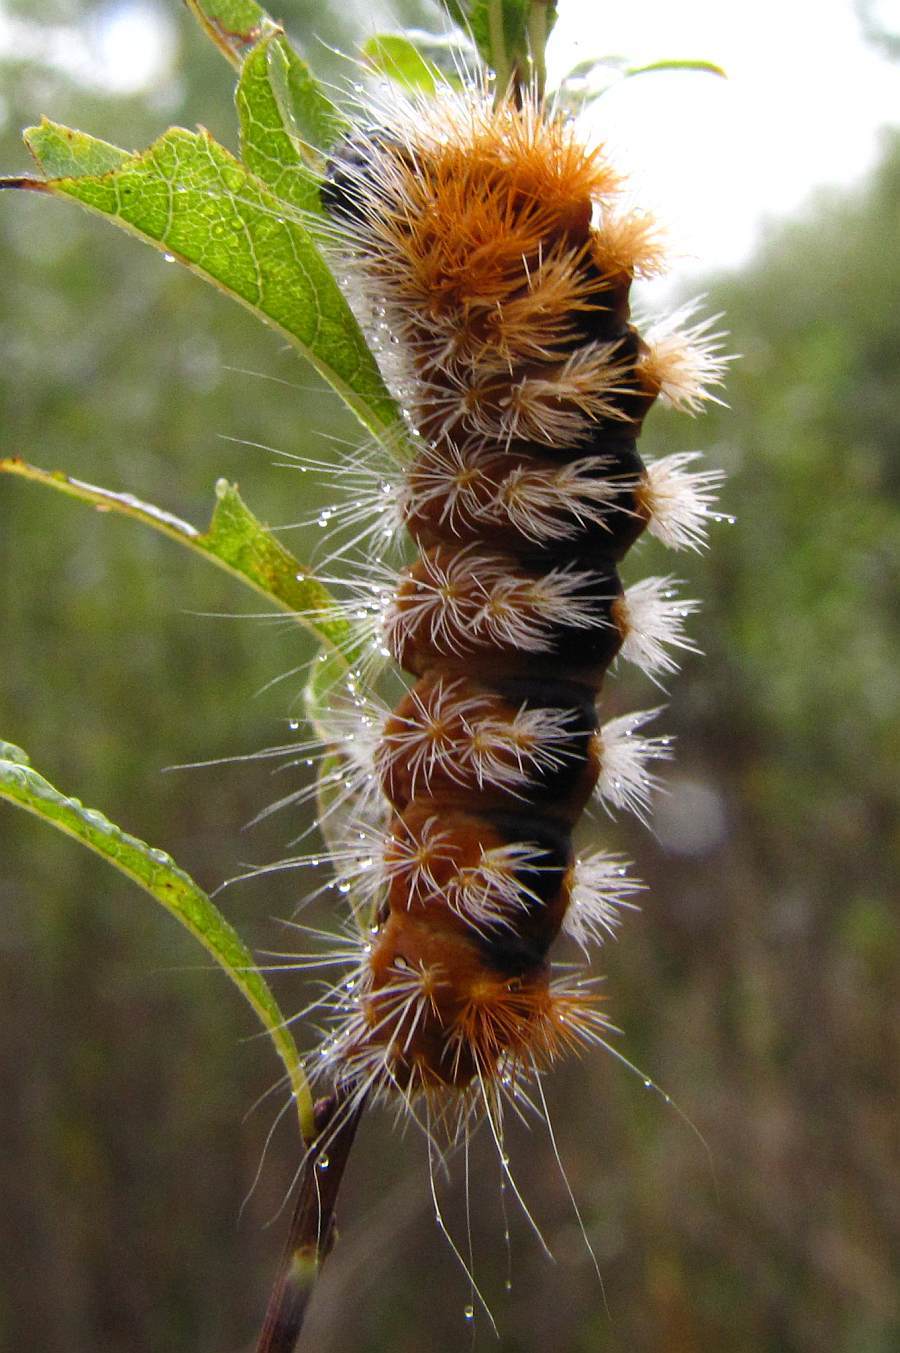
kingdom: Animalia
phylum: Arthropoda
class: Insecta
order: Lepidoptera
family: Noctuidae
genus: Acronicta
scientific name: Acronicta impressa
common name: Impressed dagger
